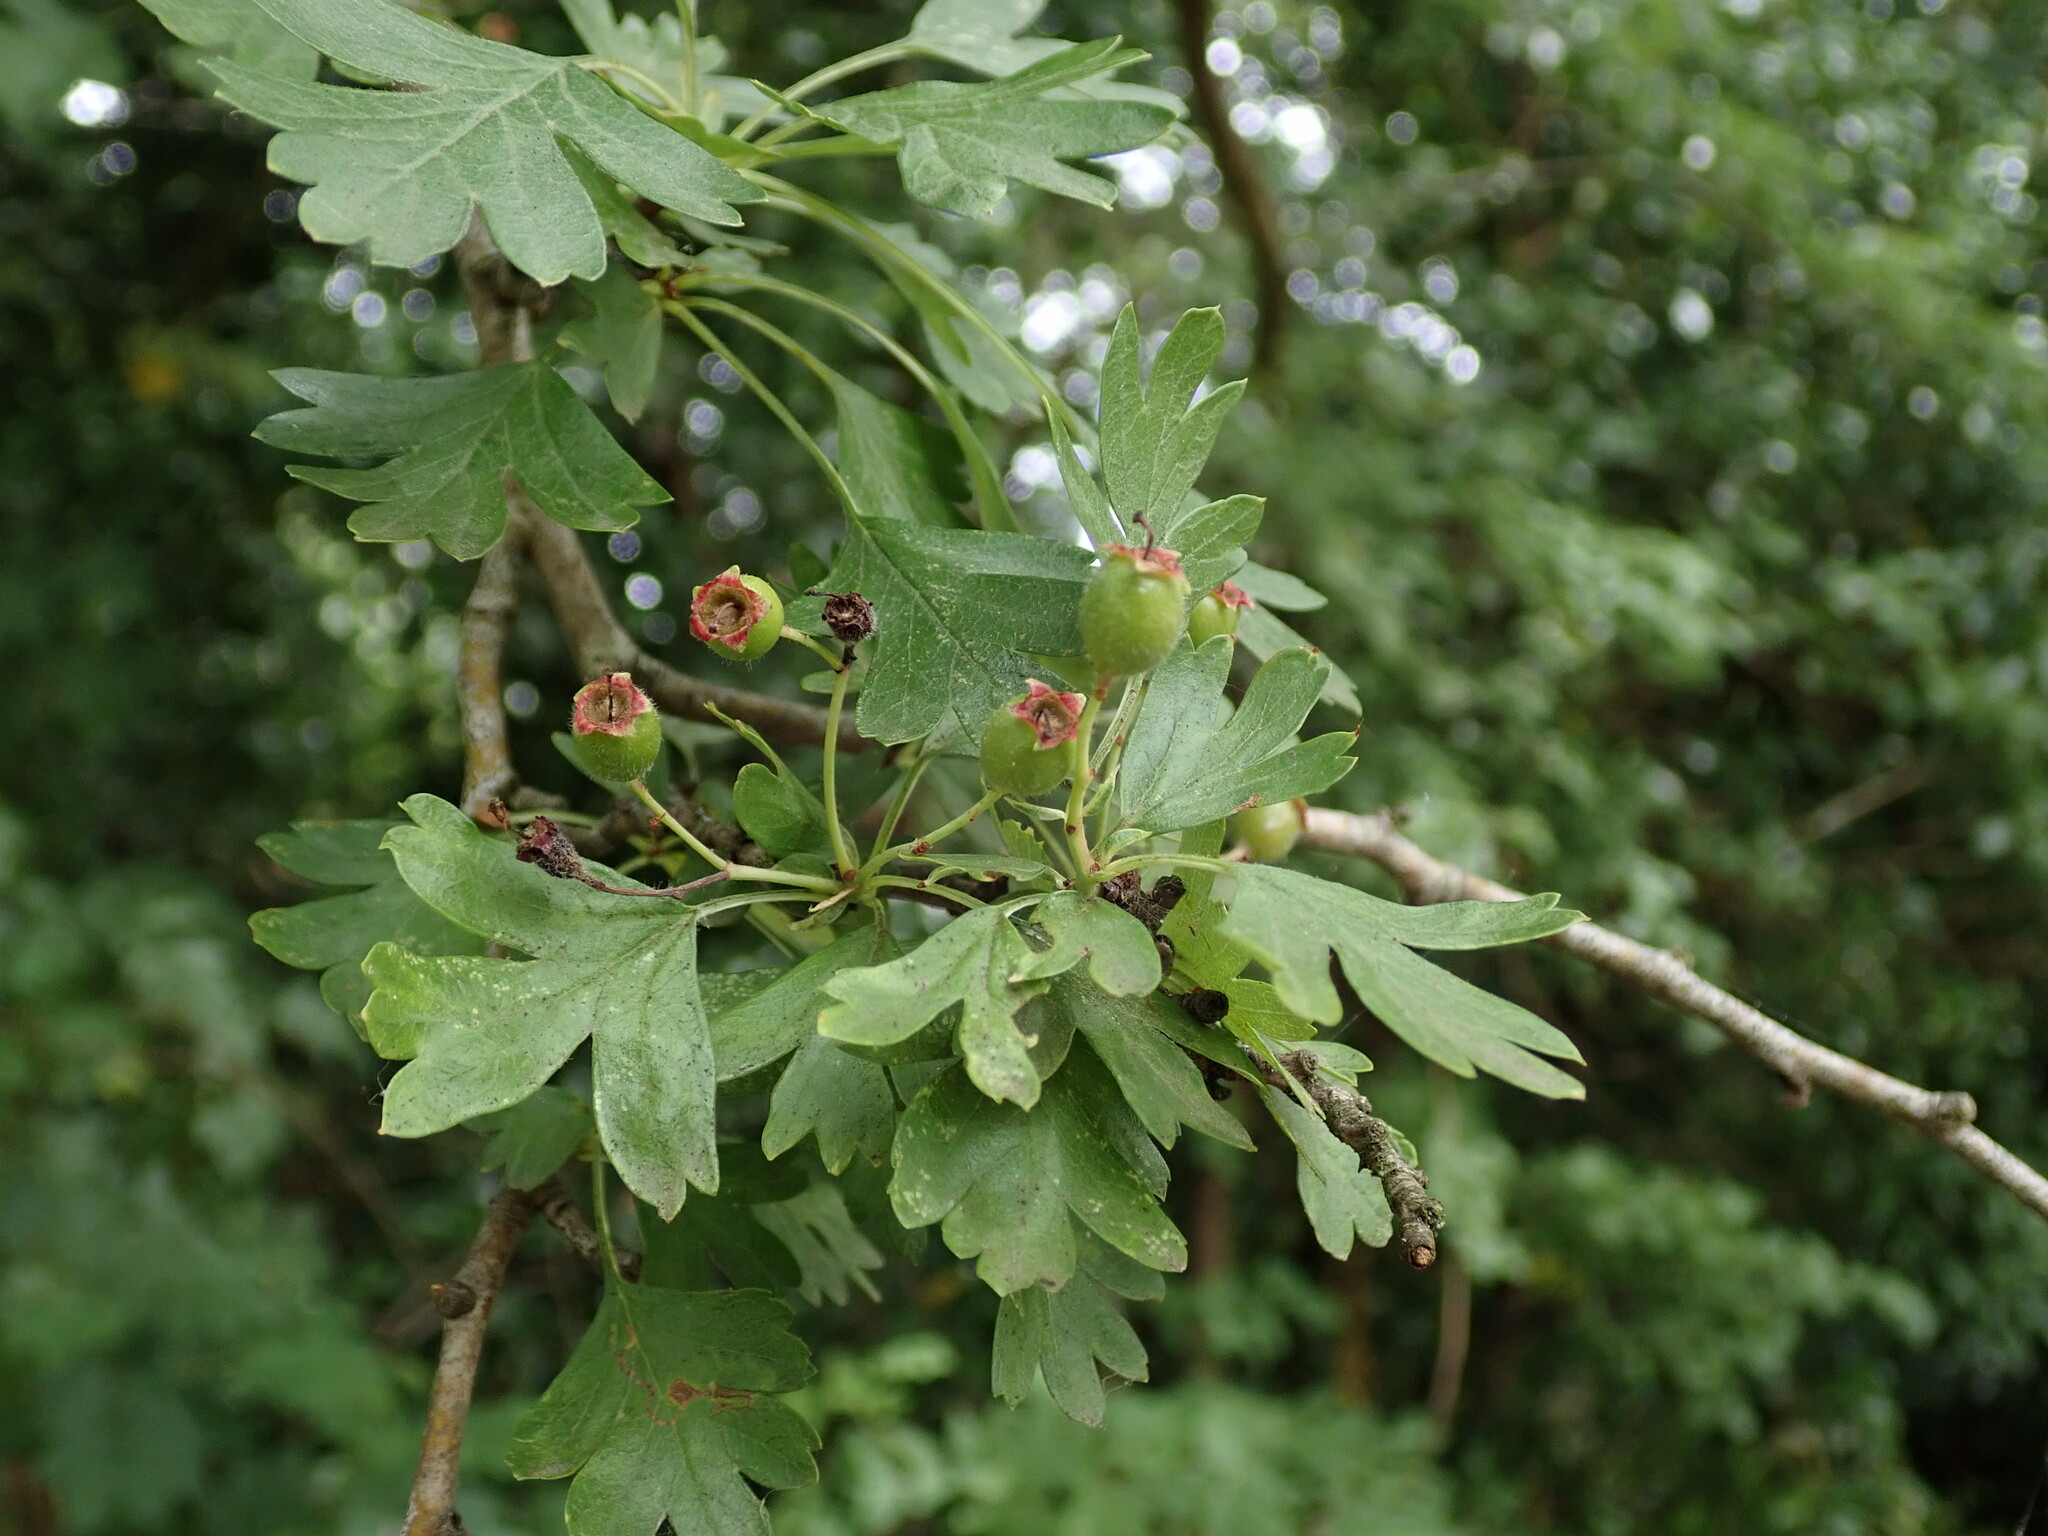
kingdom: Plantae
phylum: Tracheophyta
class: Magnoliopsida
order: Rosales
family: Rosaceae
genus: Crataegus
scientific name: Crataegus monogyna
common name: Hawthorn
